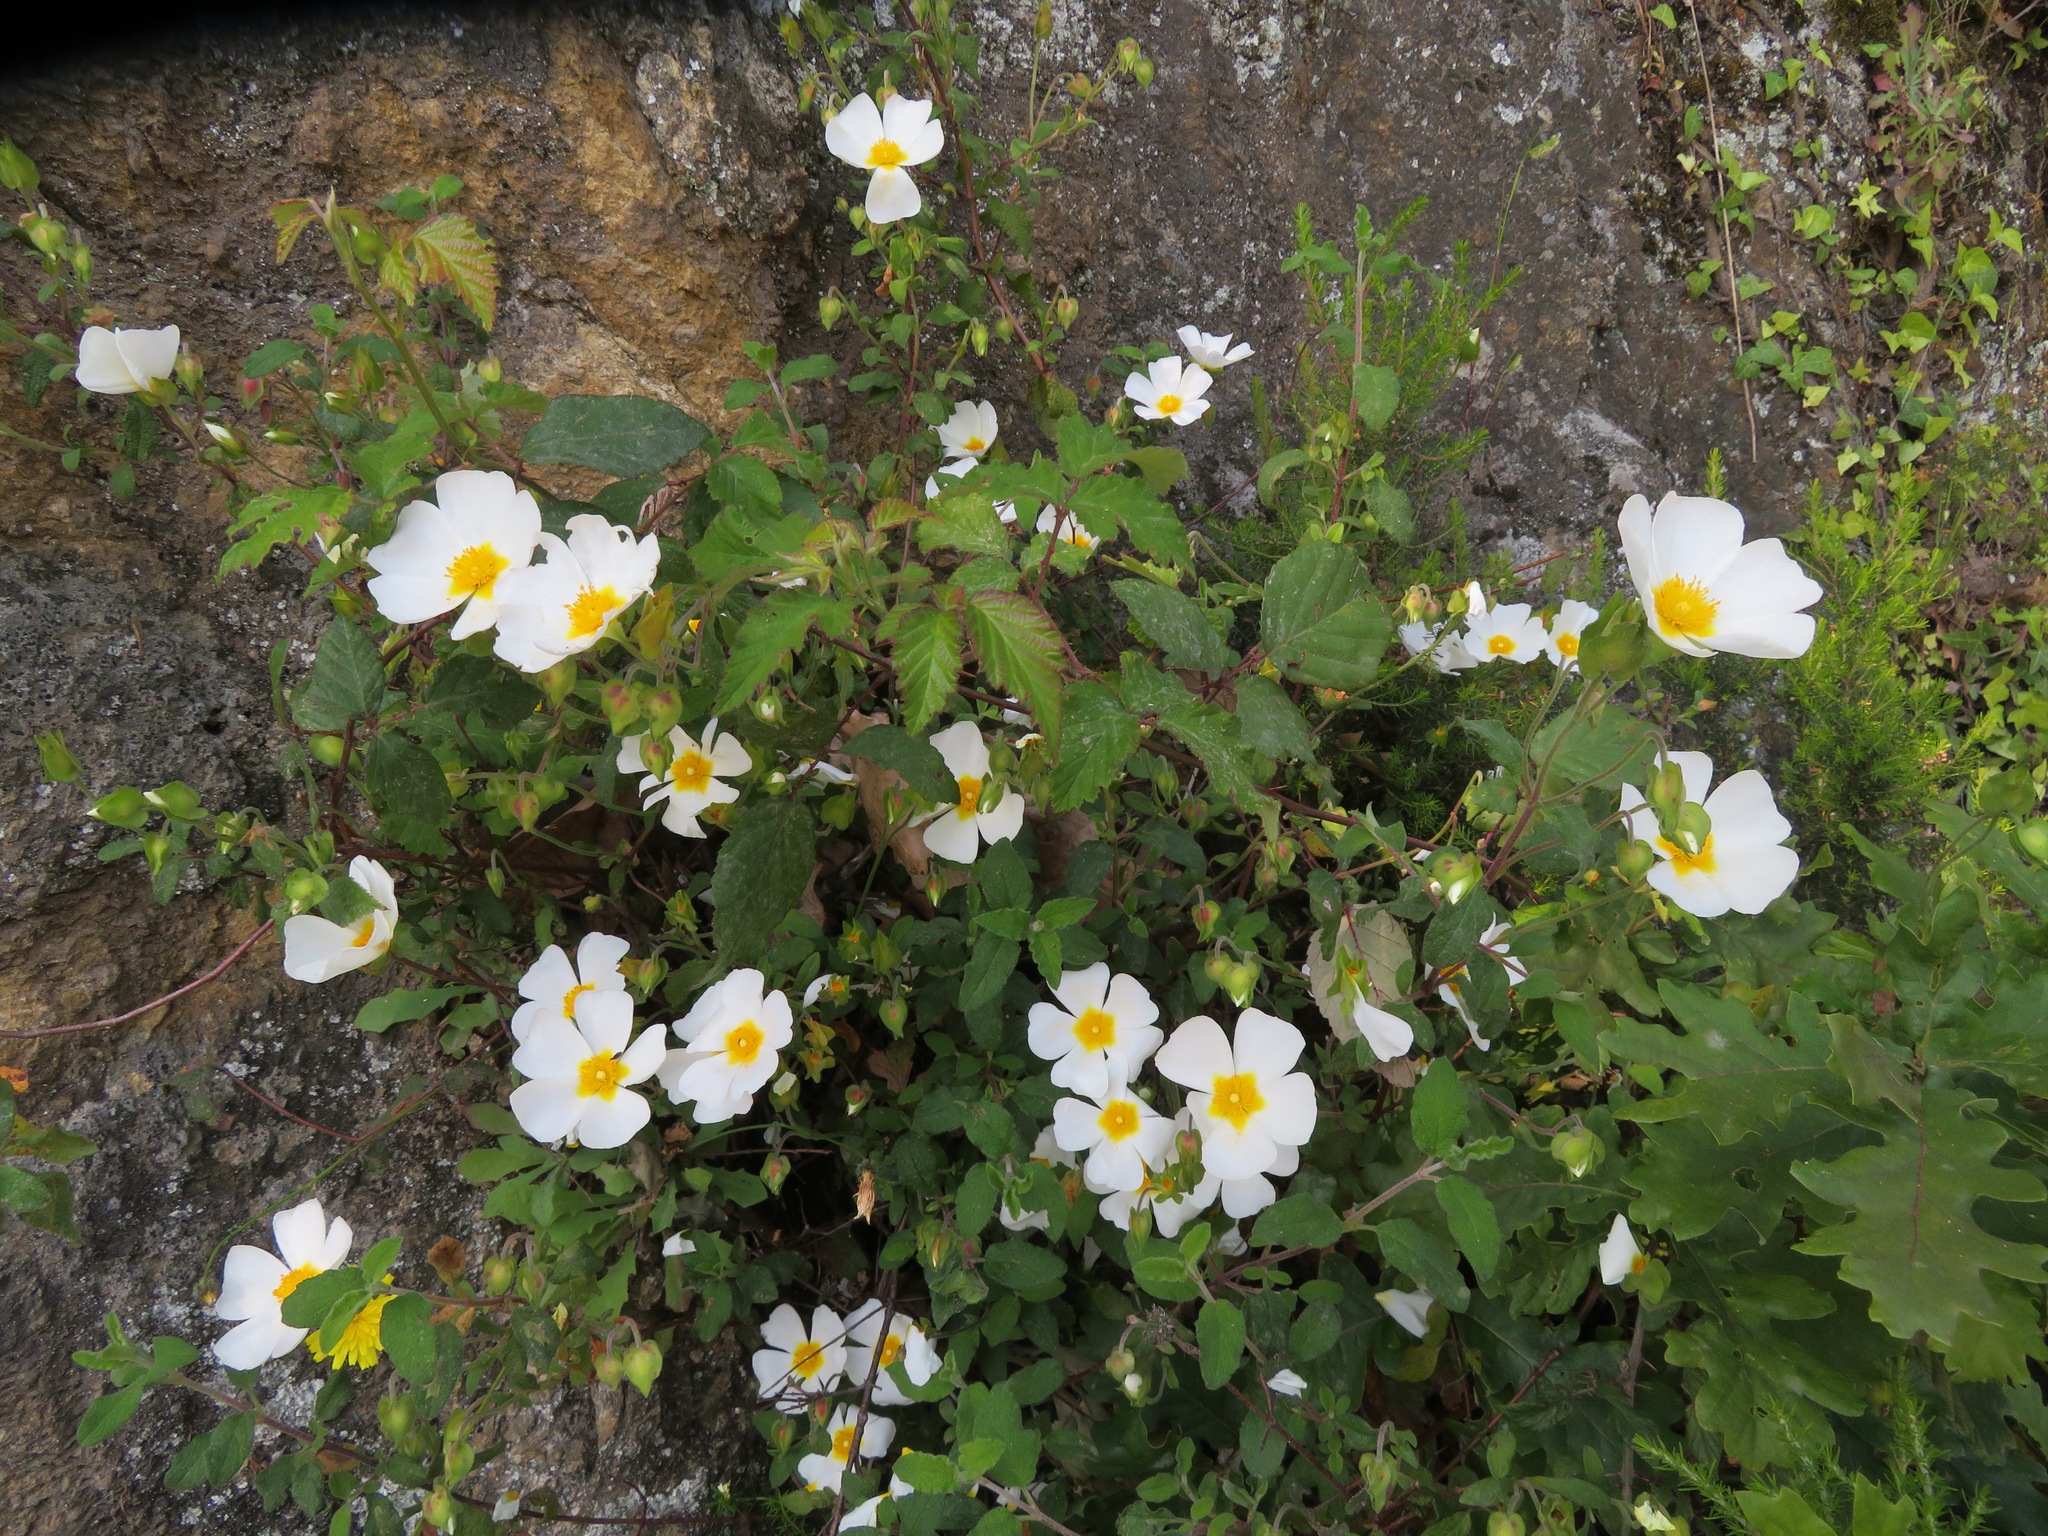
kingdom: Plantae
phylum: Tracheophyta
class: Magnoliopsida
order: Malvales
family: Cistaceae
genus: Cistus
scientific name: Cistus salviifolius
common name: Salvia cistus
